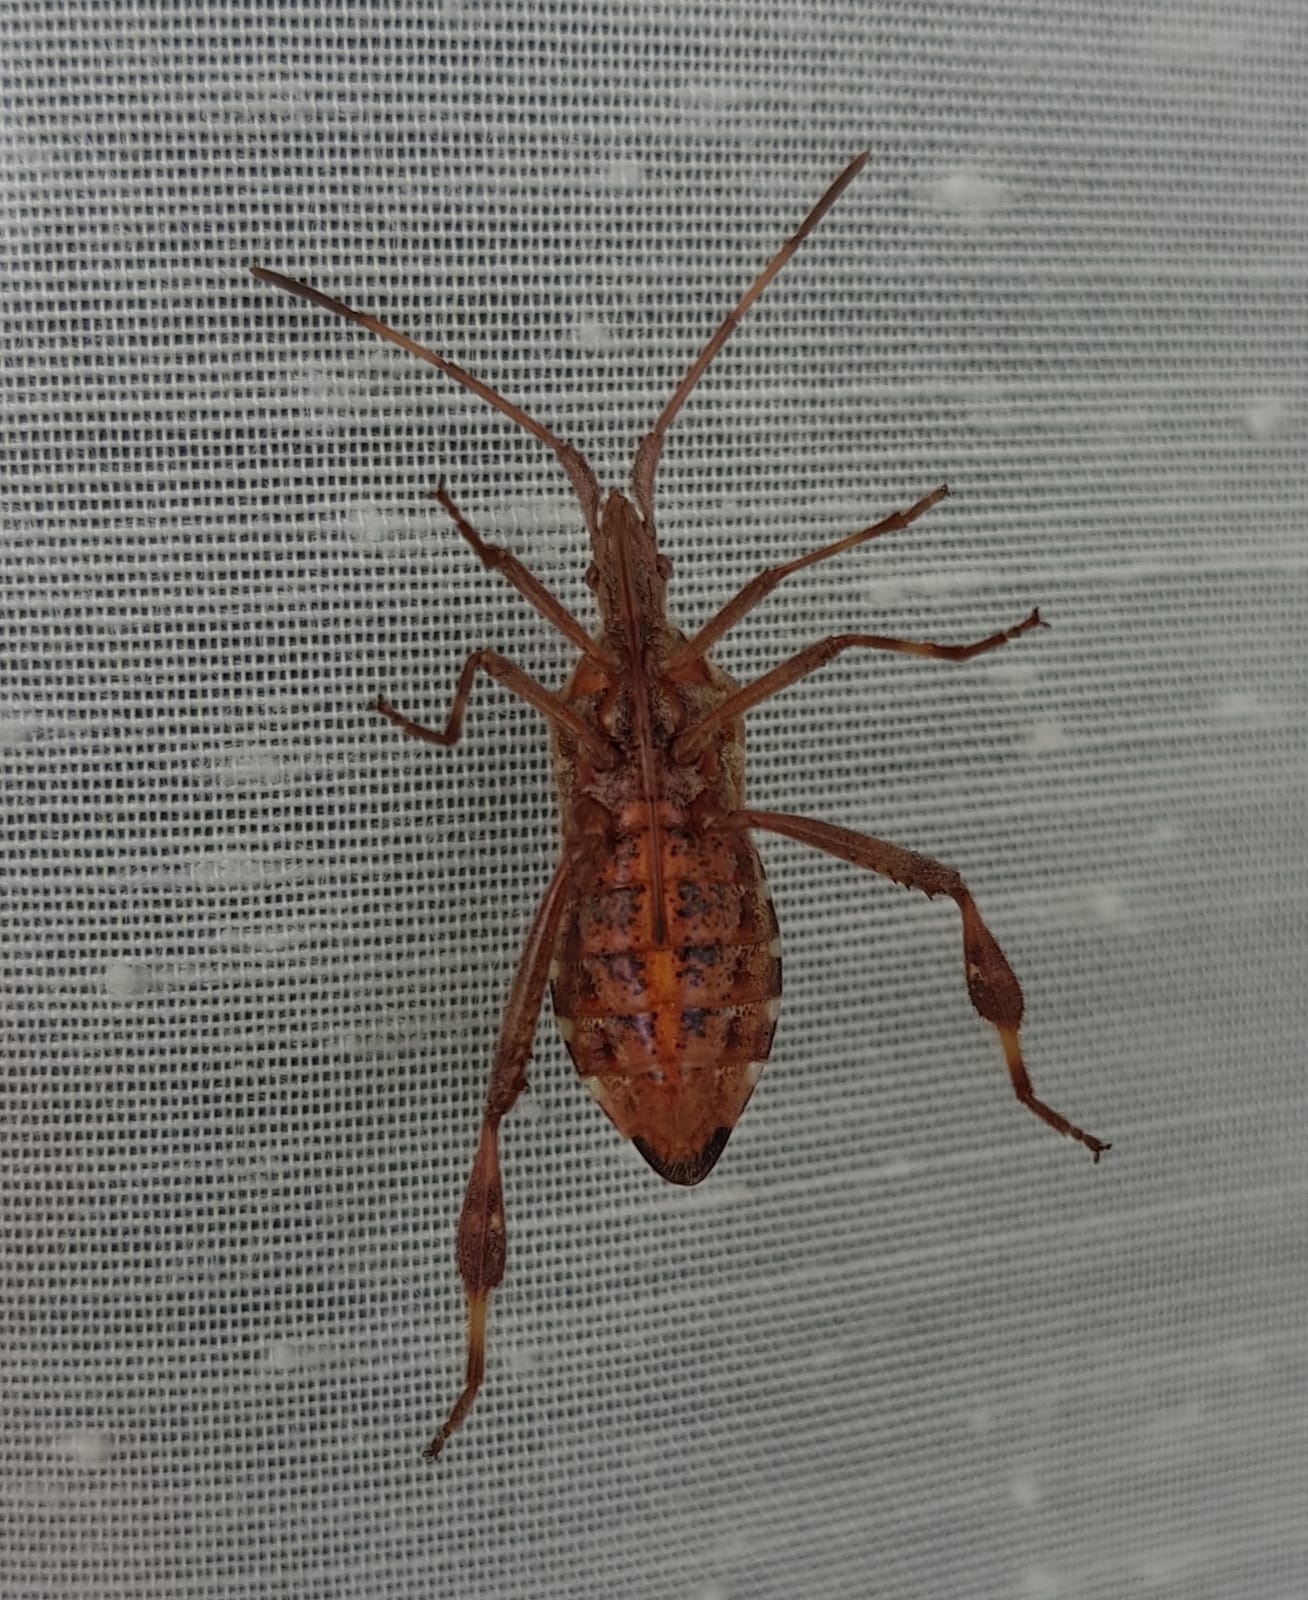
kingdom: Animalia
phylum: Arthropoda
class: Insecta
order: Hemiptera
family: Coreidae
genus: Leptoglossus
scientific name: Leptoglossus occidentalis
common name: Western conifer-seed bug
